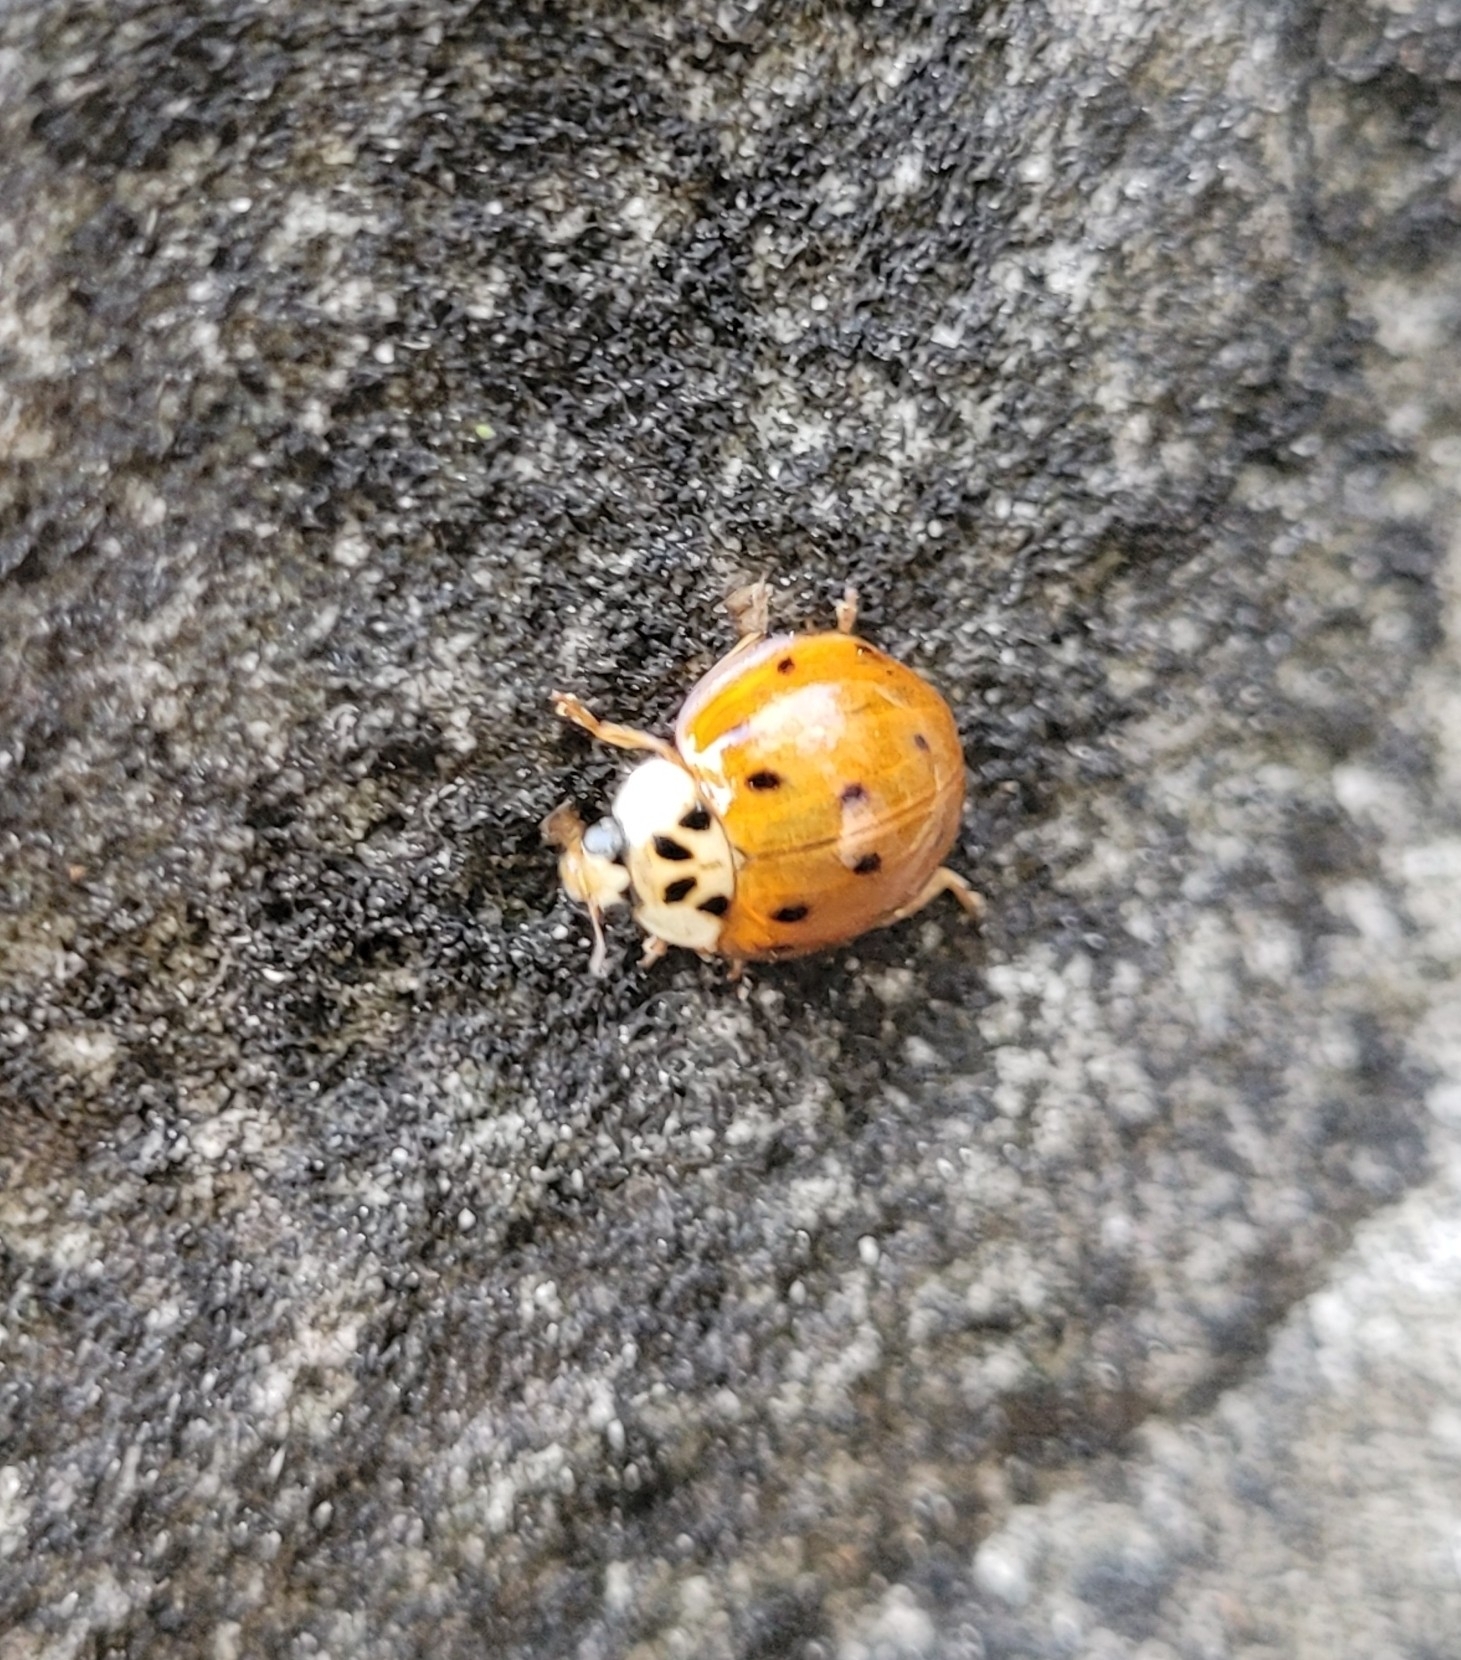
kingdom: Animalia
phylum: Arthropoda
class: Insecta
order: Coleoptera
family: Coccinellidae
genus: Harmonia
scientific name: Harmonia axyridis
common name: Harlequin ladybird
